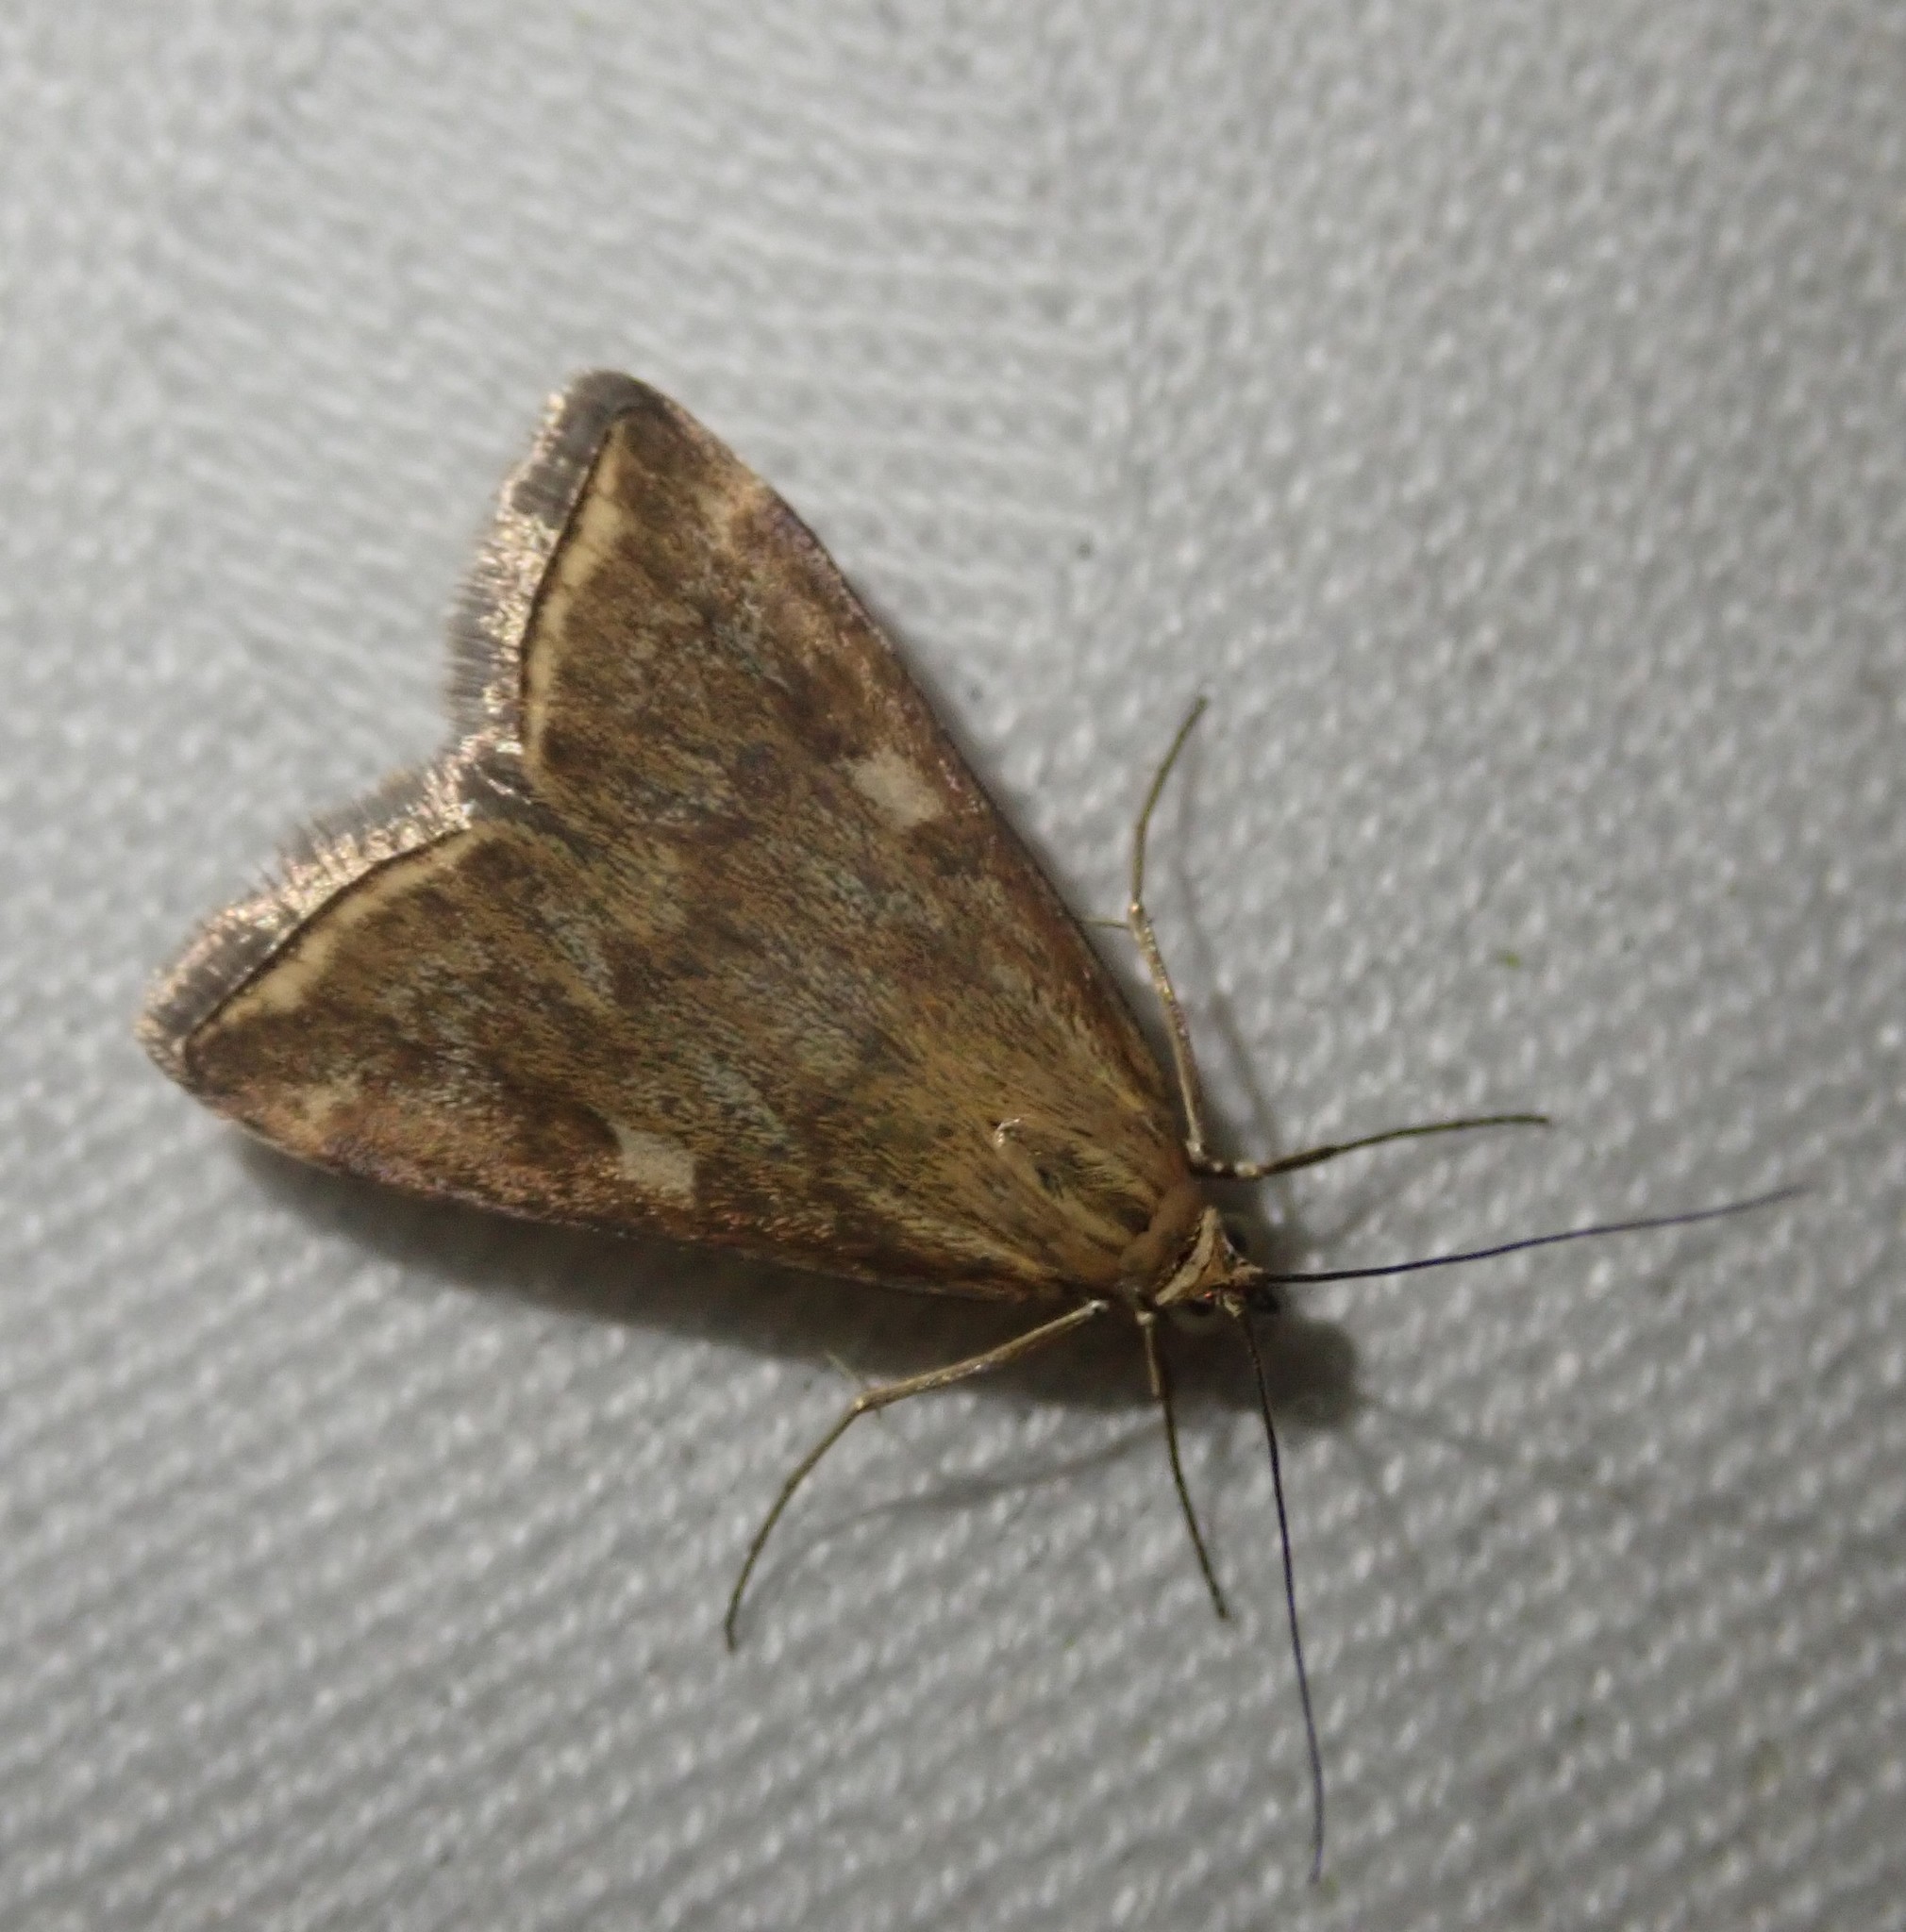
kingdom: Animalia
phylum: Arthropoda
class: Insecta
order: Lepidoptera
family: Crambidae
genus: Loxostege
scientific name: Loxostege sticticalis
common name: Crambid moth
